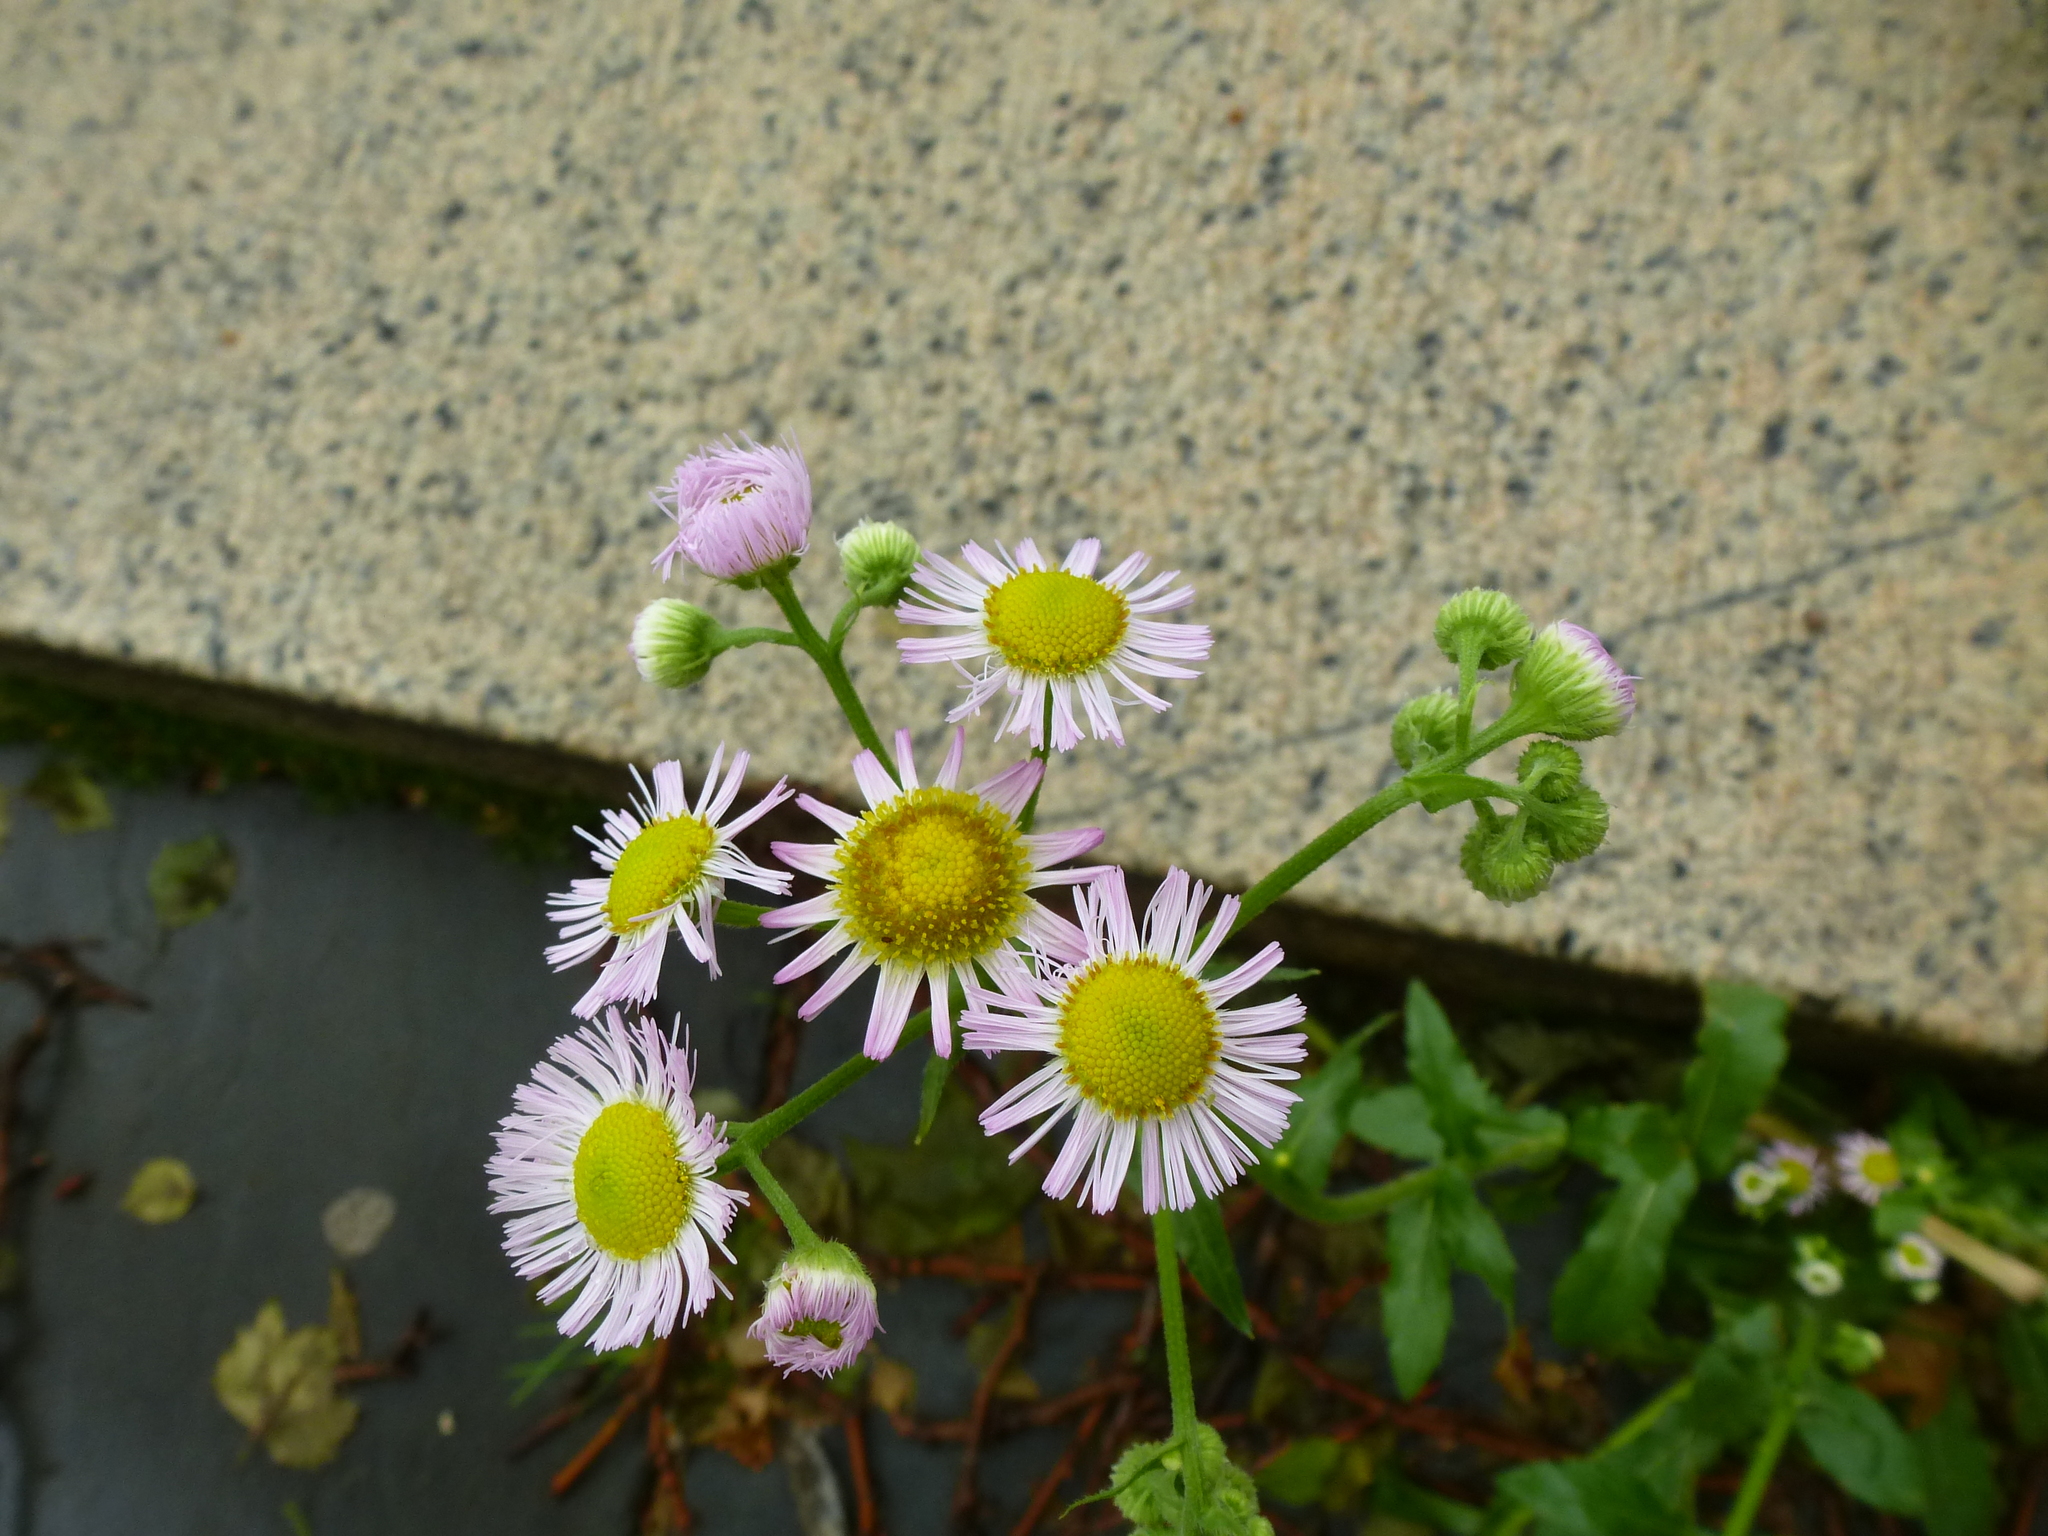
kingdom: Plantae
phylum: Tracheophyta
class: Magnoliopsida
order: Asterales
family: Asteraceae
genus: Erigeron
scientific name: Erigeron philadelphicus
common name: Robin's-plantain
